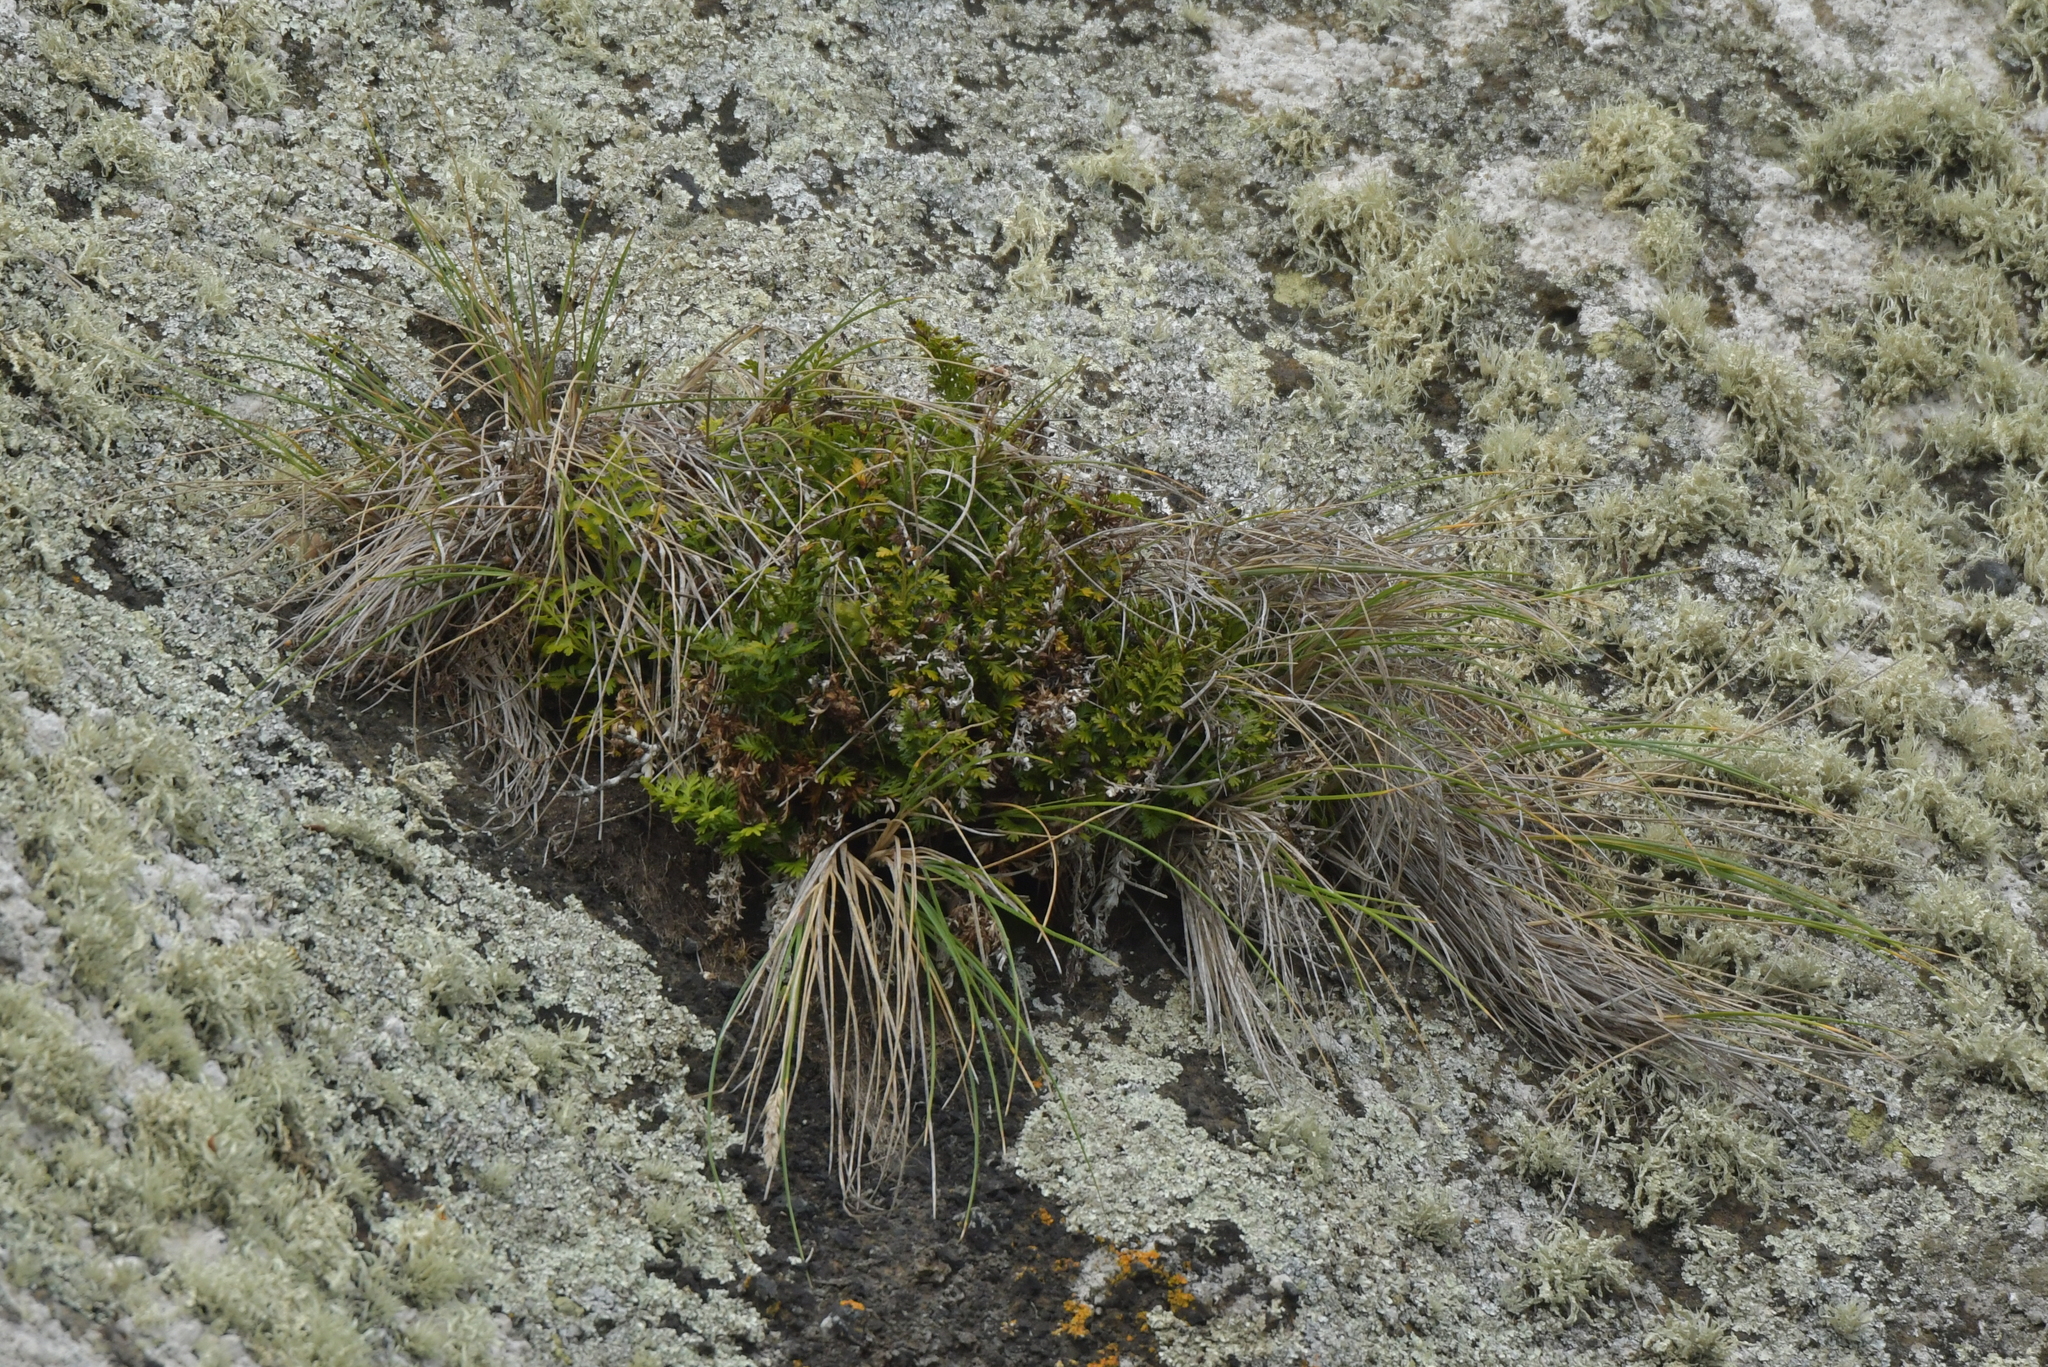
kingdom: Plantae
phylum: Tracheophyta
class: Polypodiopsida
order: Polypodiales
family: Aspleniaceae
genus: Asplenium
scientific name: Asplenium chathamense
